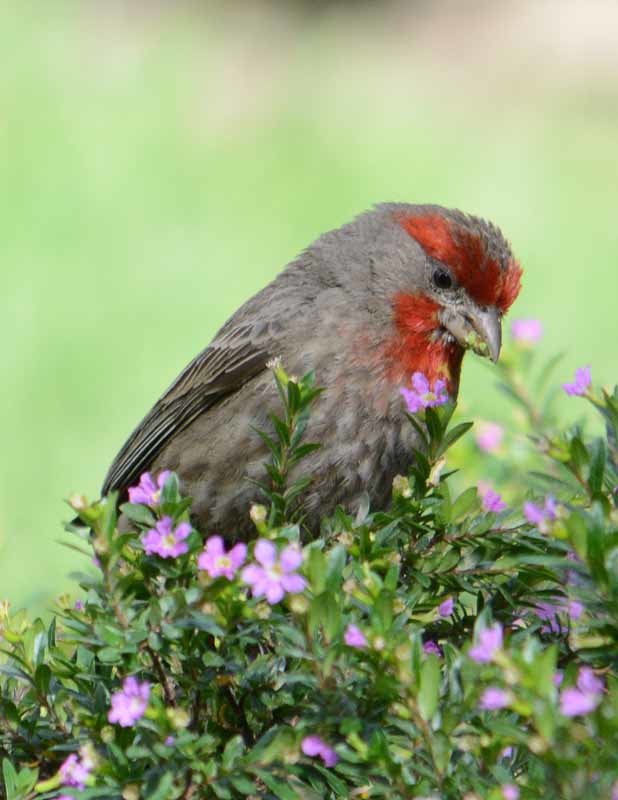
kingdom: Animalia
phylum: Chordata
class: Aves
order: Passeriformes
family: Fringillidae
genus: Haemorhous
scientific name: Haemorhous mexicanus
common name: House finch
